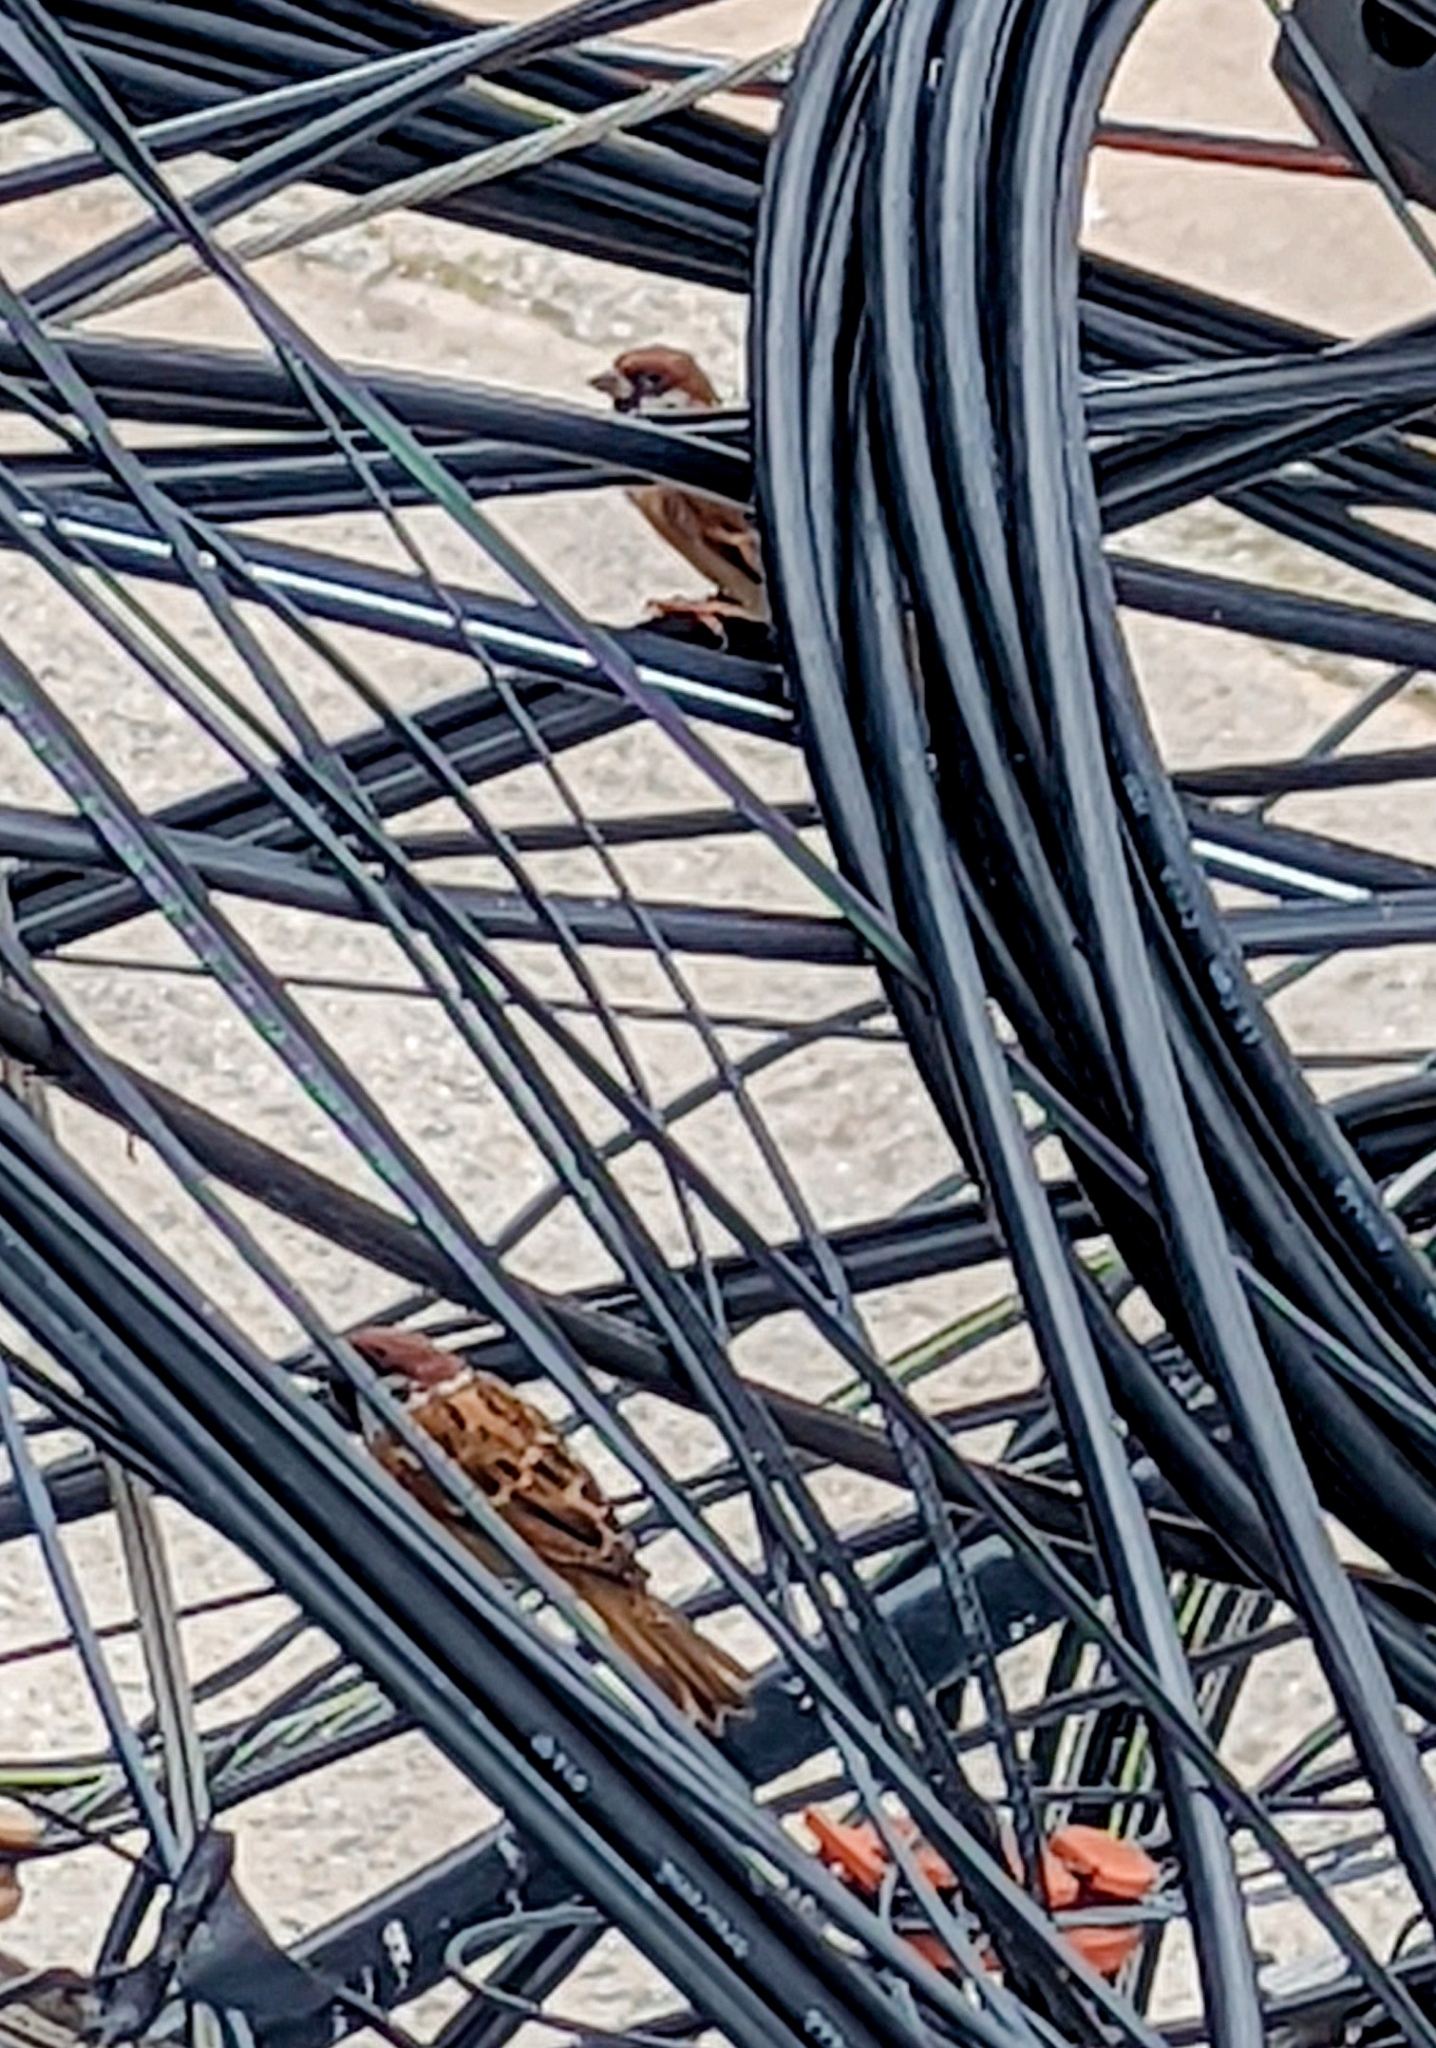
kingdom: Animalia
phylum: Chordata
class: Aves
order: Passeriformes
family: Passeridae
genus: Passer
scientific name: Passer montanus
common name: Eurasian tree sparrow
